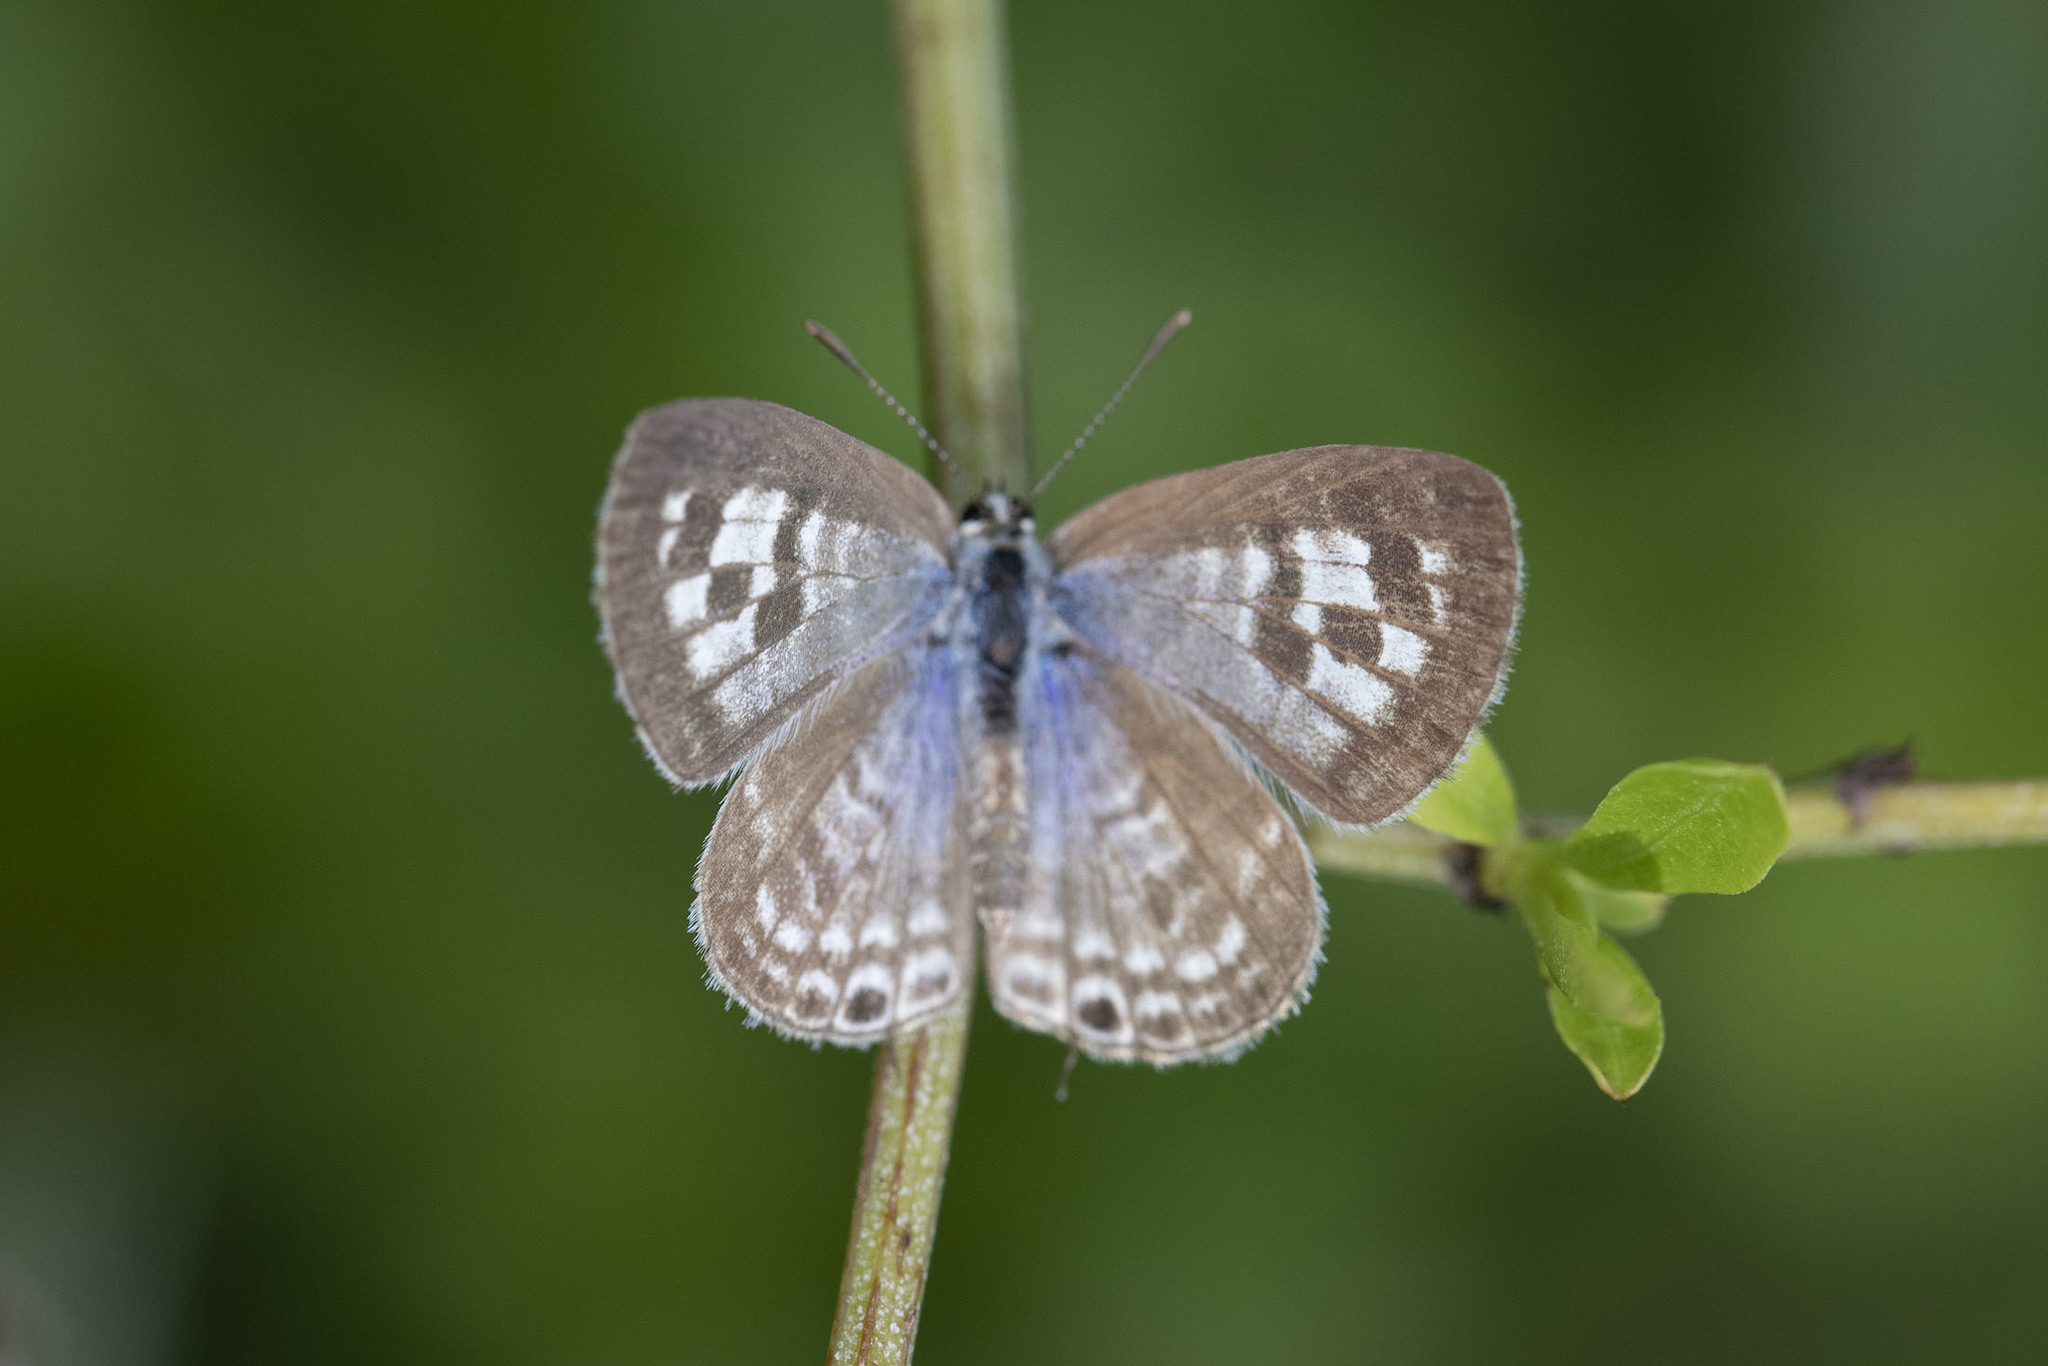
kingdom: Animalia
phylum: Arthropoda
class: Insecta
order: Lepidoptera
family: Lycaenidae
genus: Leptotes
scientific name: Leptotes plinius
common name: Zebra blue
